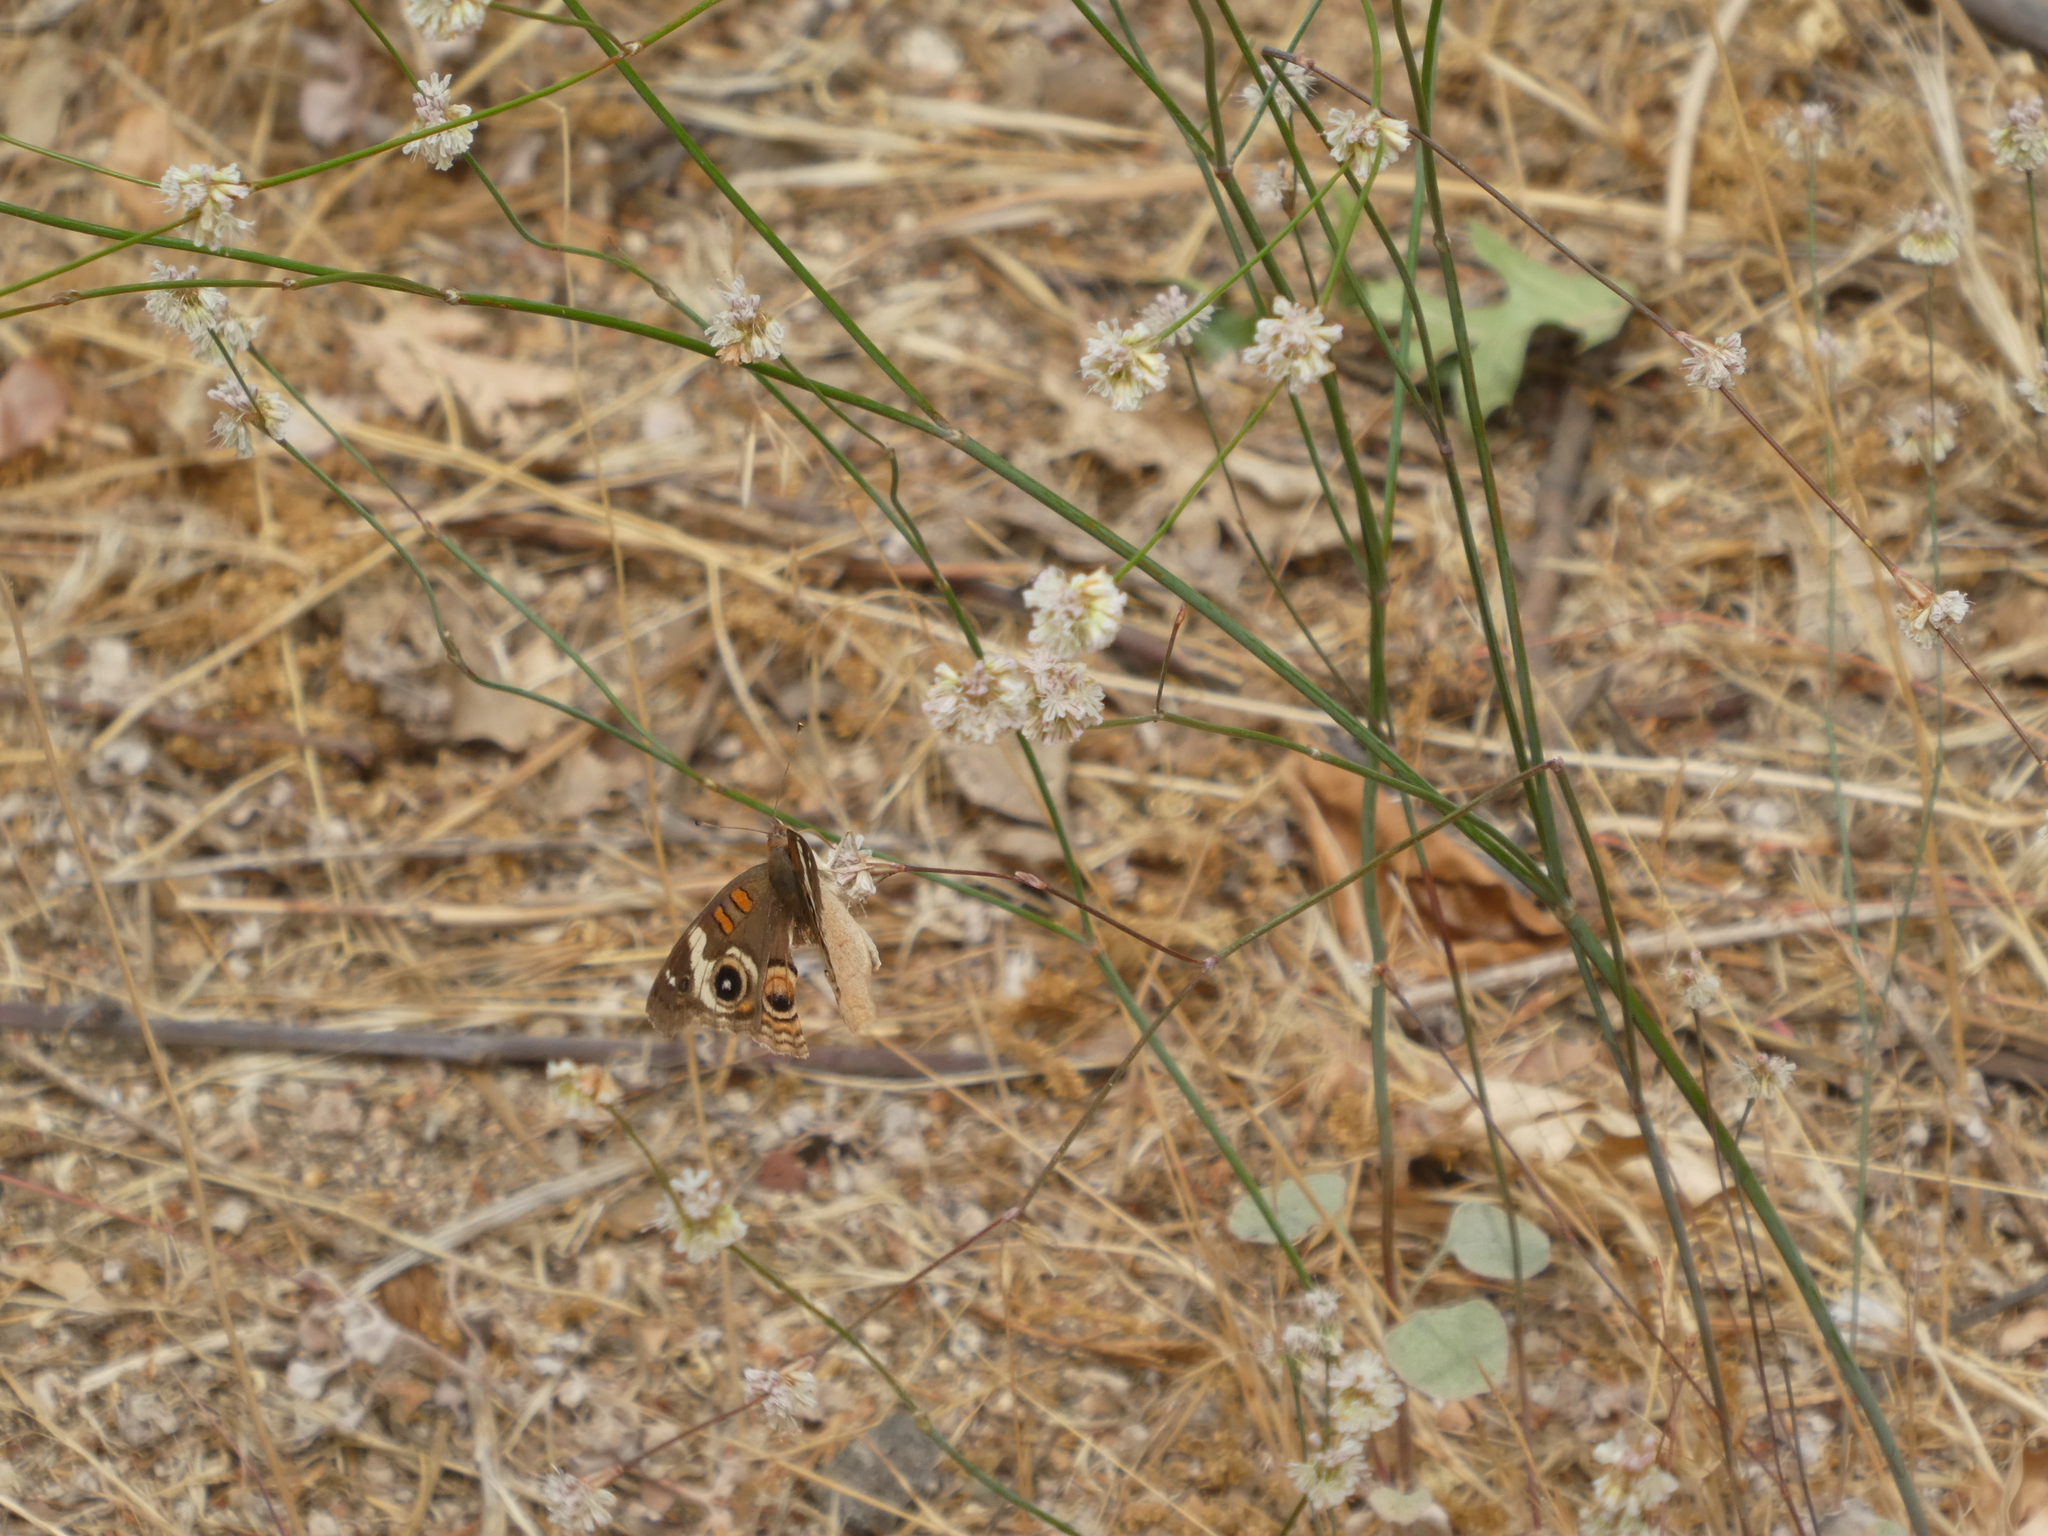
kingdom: Animalia
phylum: Arthropoda
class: Insecta
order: Lepidoptera
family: Nymphalidae
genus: Junonia
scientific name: Junonia grisea
